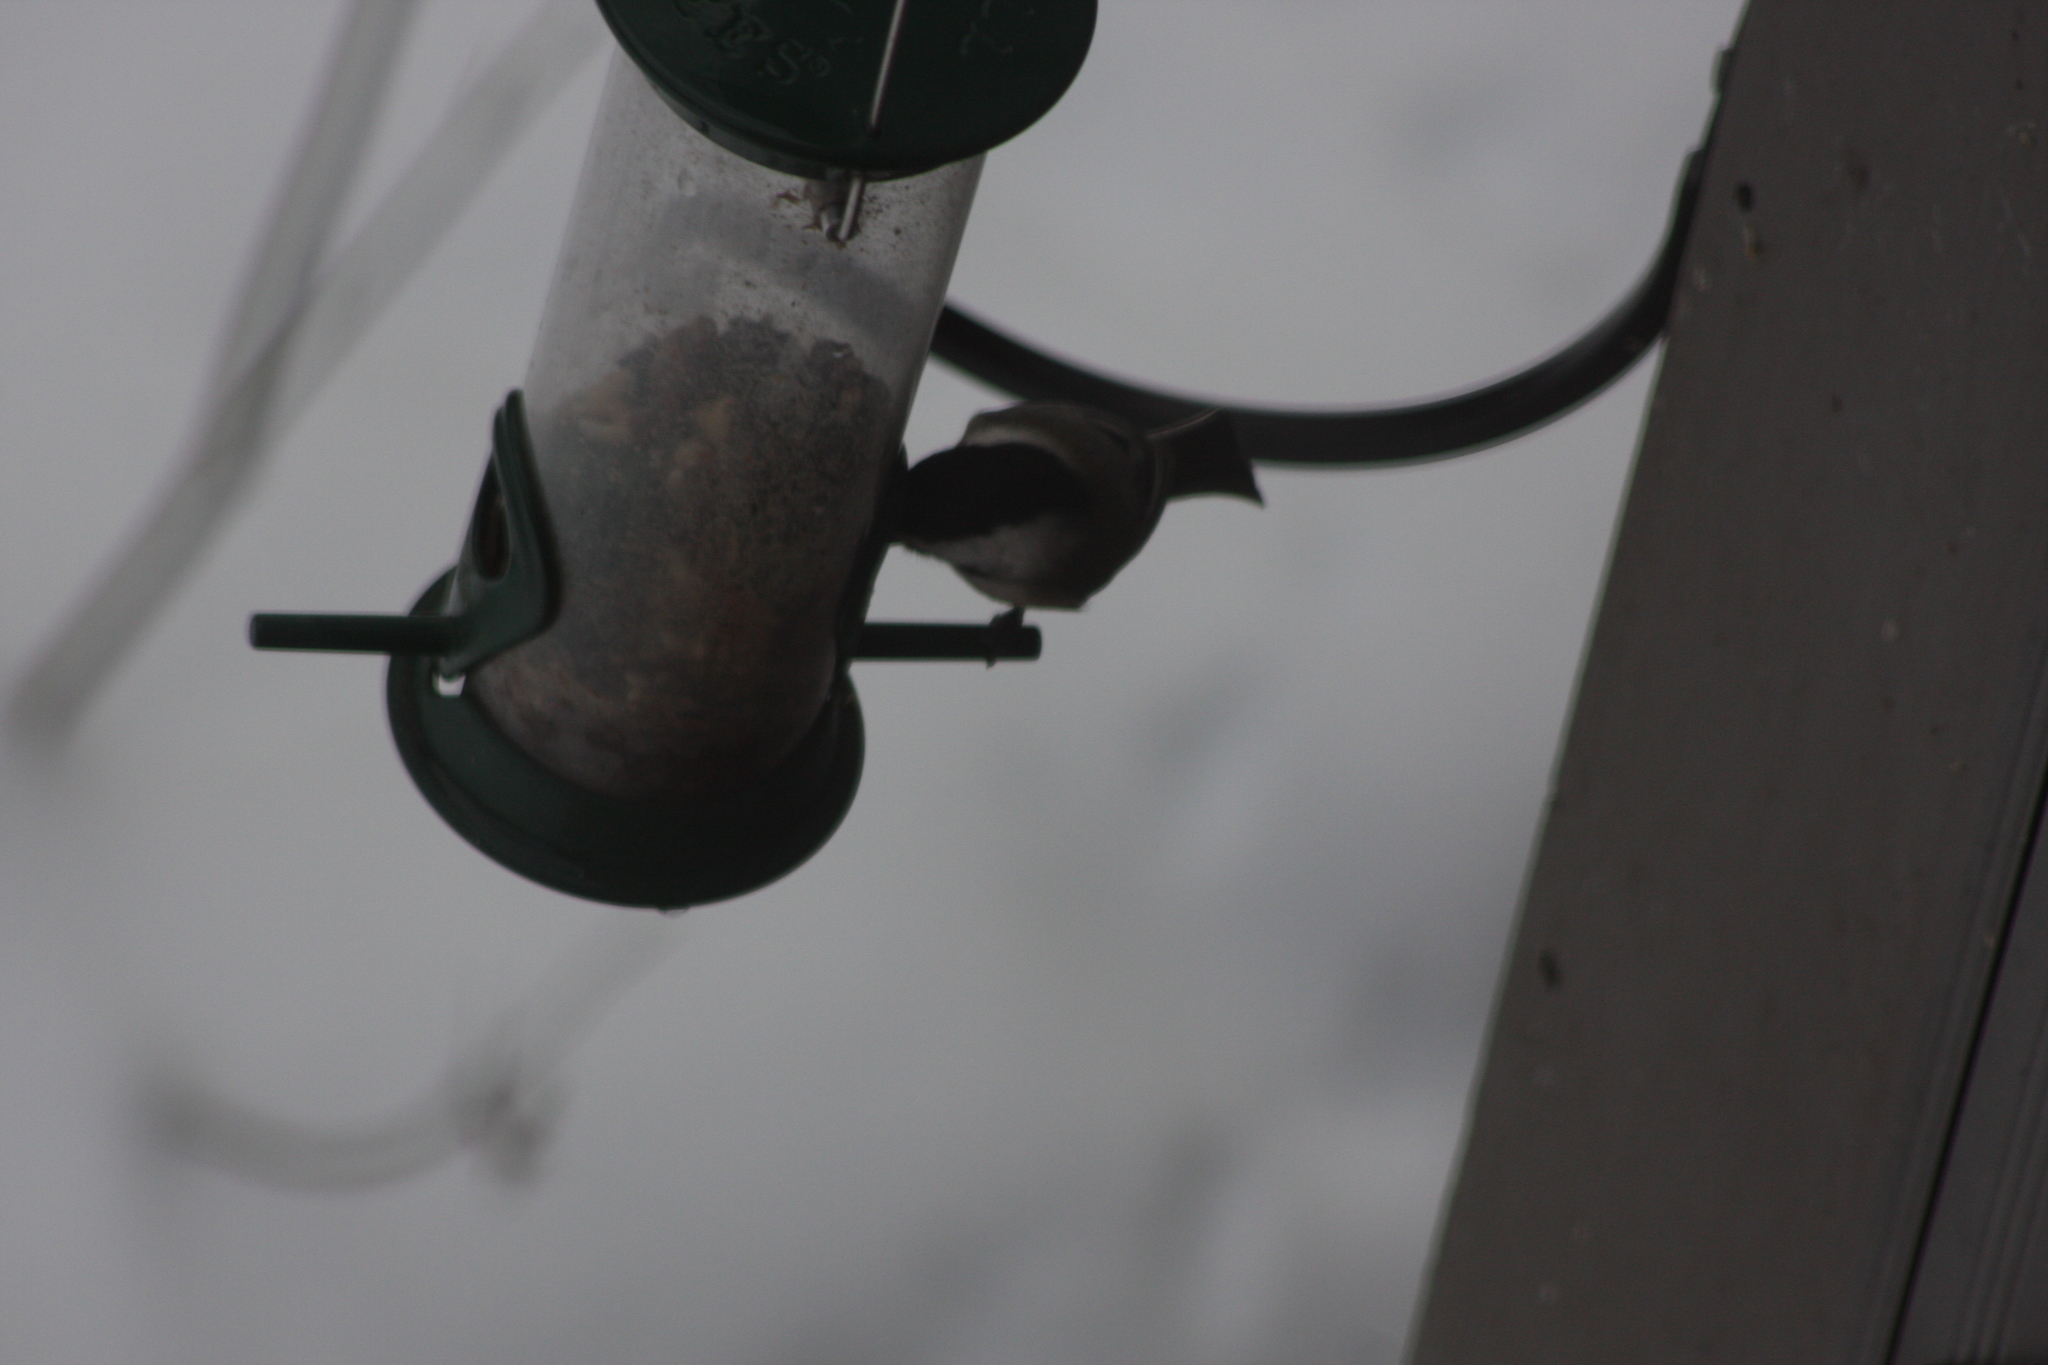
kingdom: Animalia
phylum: Chordata
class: Aves
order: Passeriformes
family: Paridae
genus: Poecile
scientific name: Poecile atricapillus
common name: Black-capped chickadee
